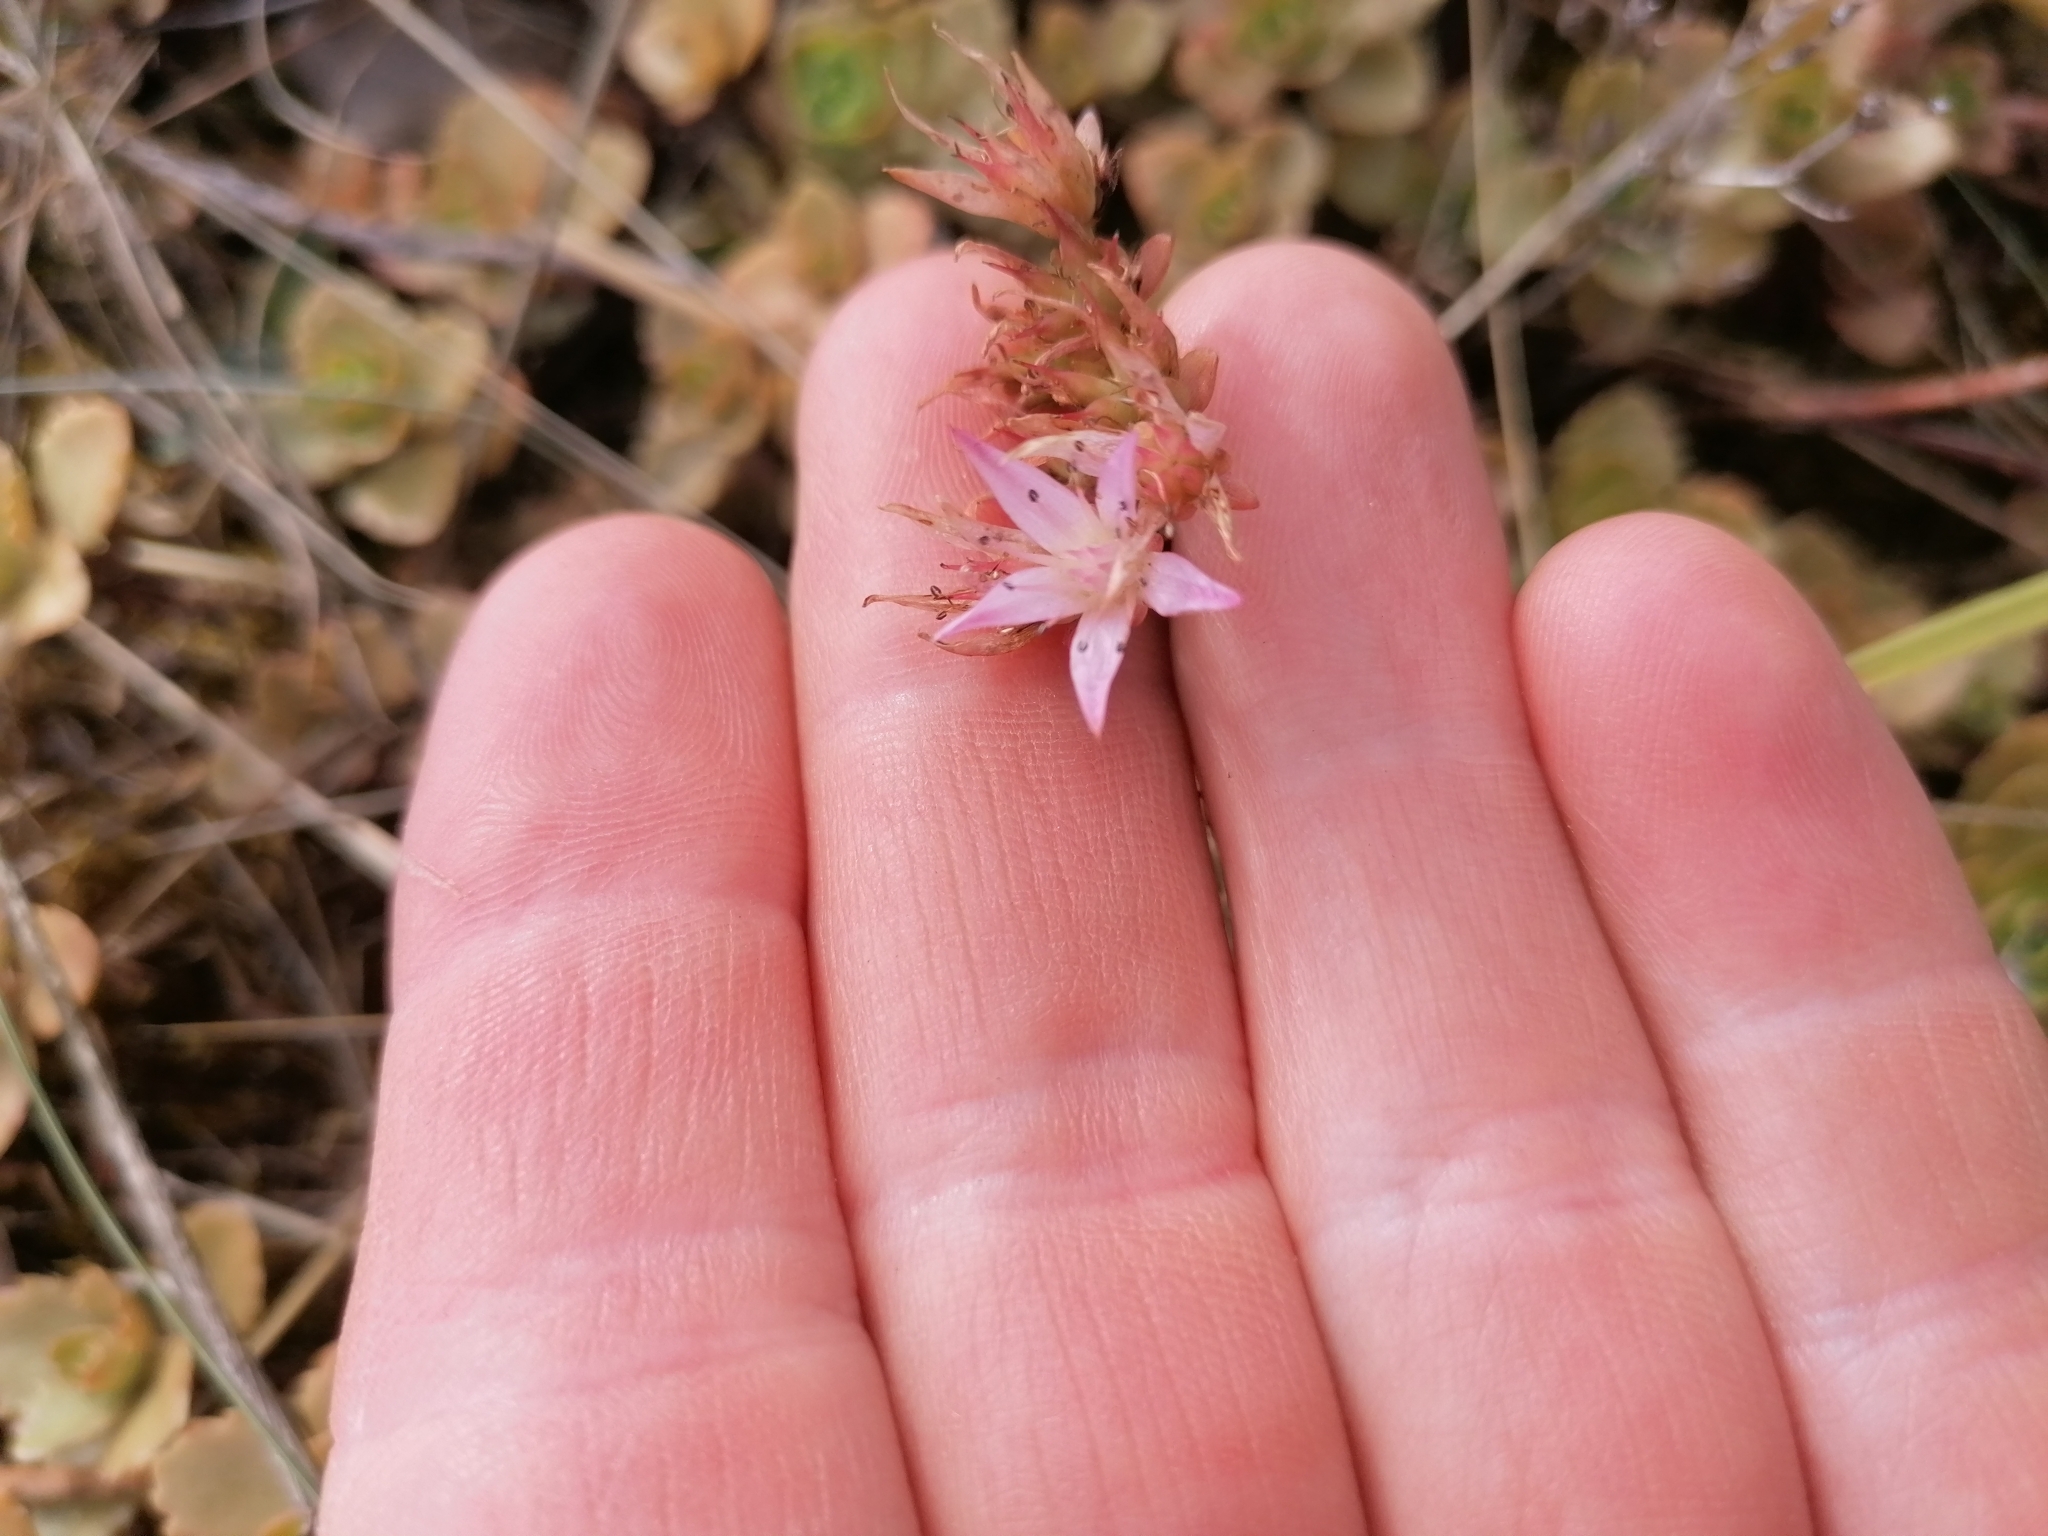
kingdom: Plantae
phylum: Tracheophyta
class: Magnoliopsida
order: Saxifragales
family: Crassulaceae
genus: Phedimus
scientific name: Phedimus spurius
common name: Caucasian stonecrop
